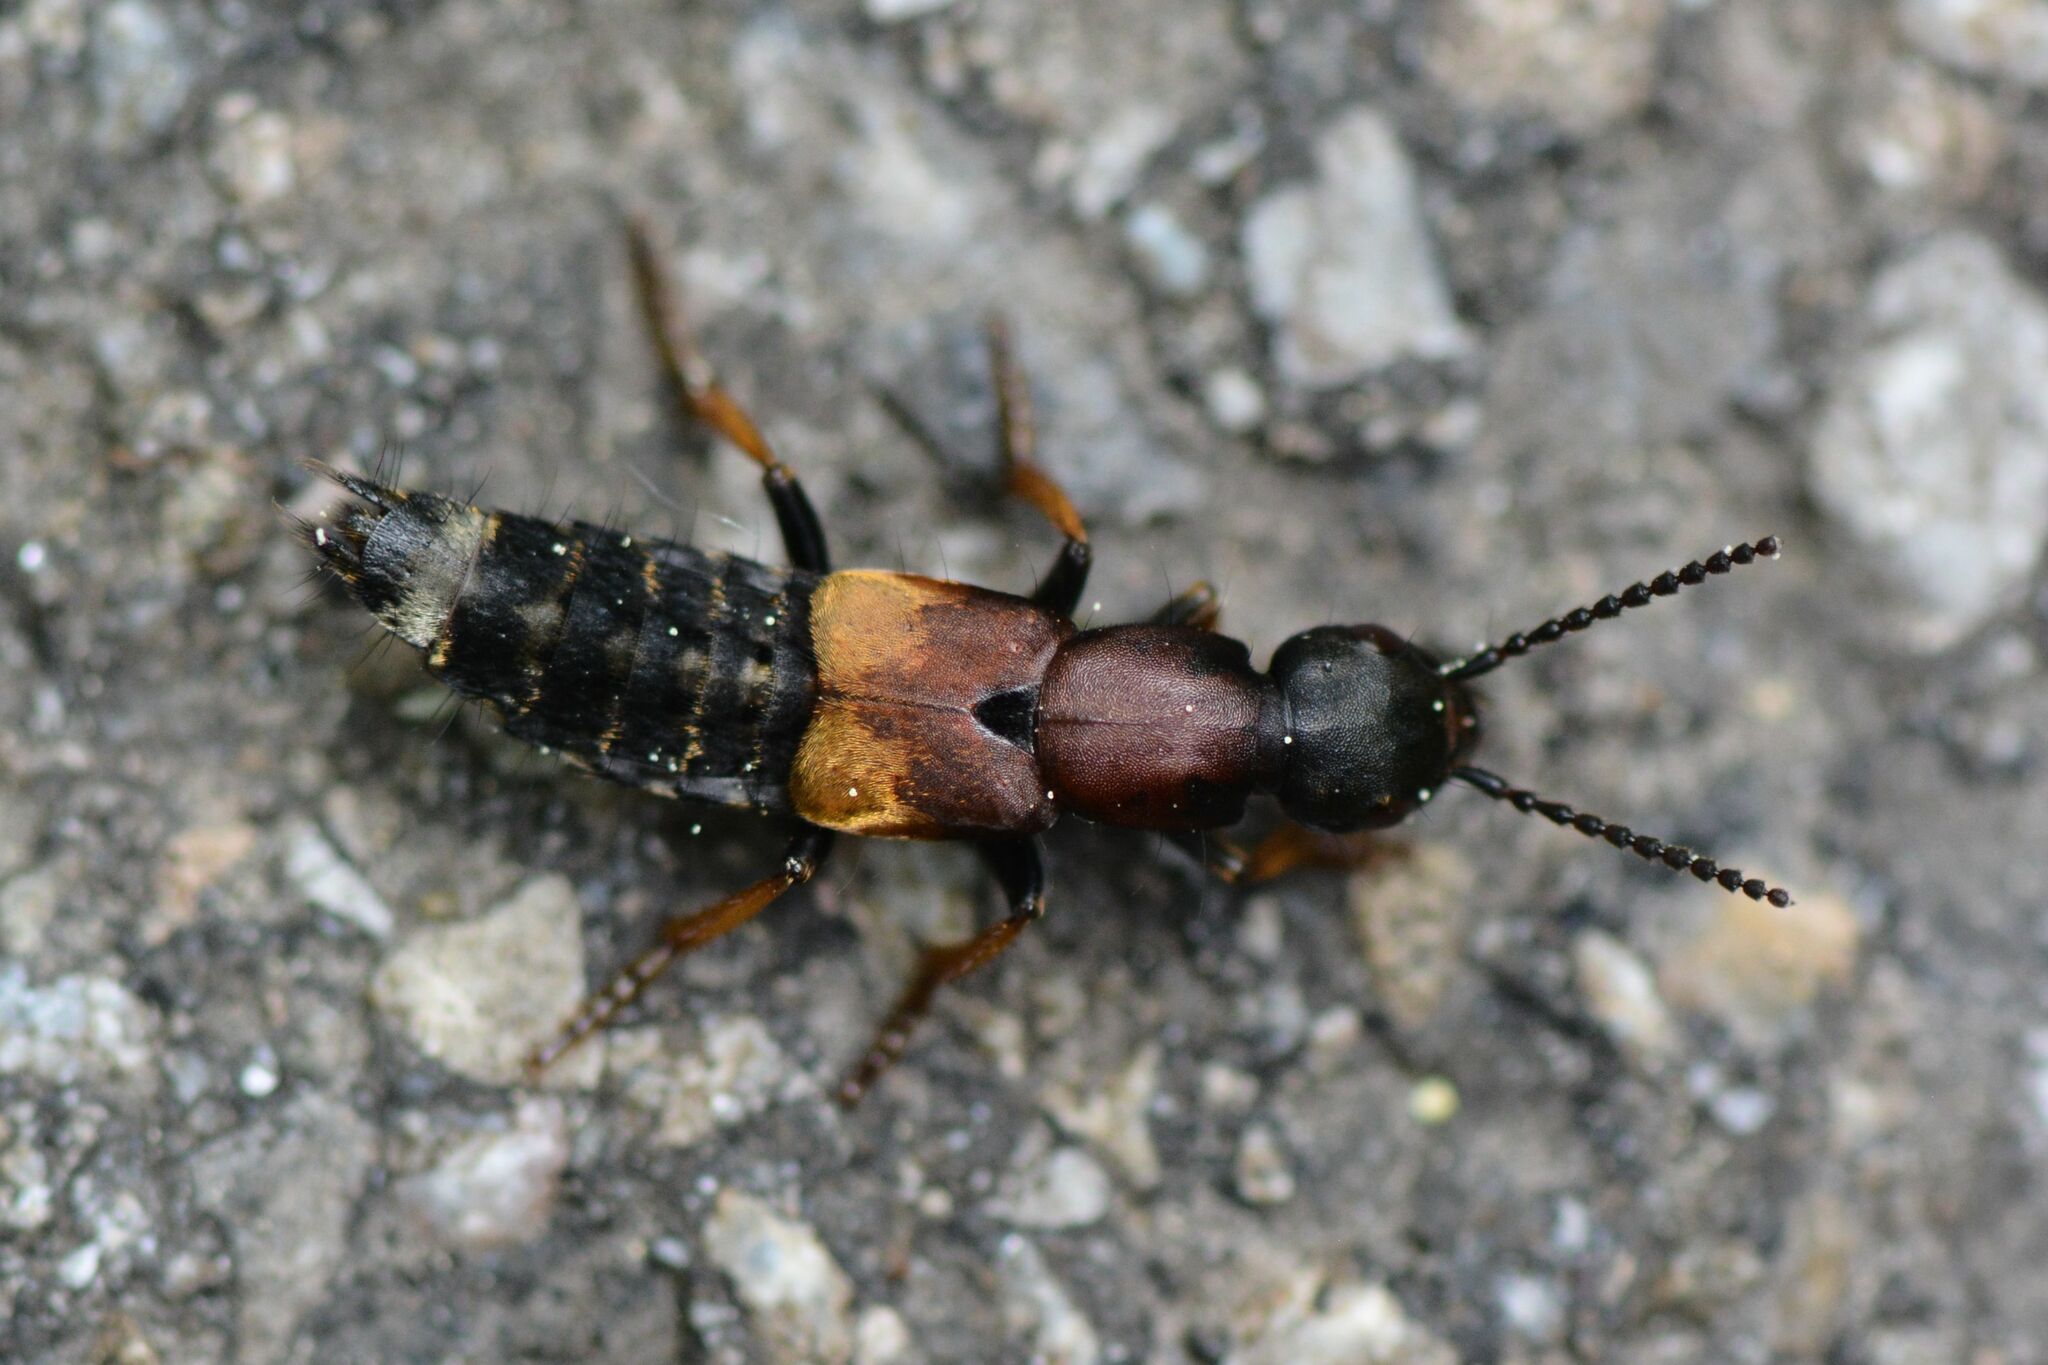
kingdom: Animalia
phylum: Arthropoda
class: Insecta
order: Coleoptera
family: Staphylinidae
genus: Dinothenarus
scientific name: Dinothenarus fossor
